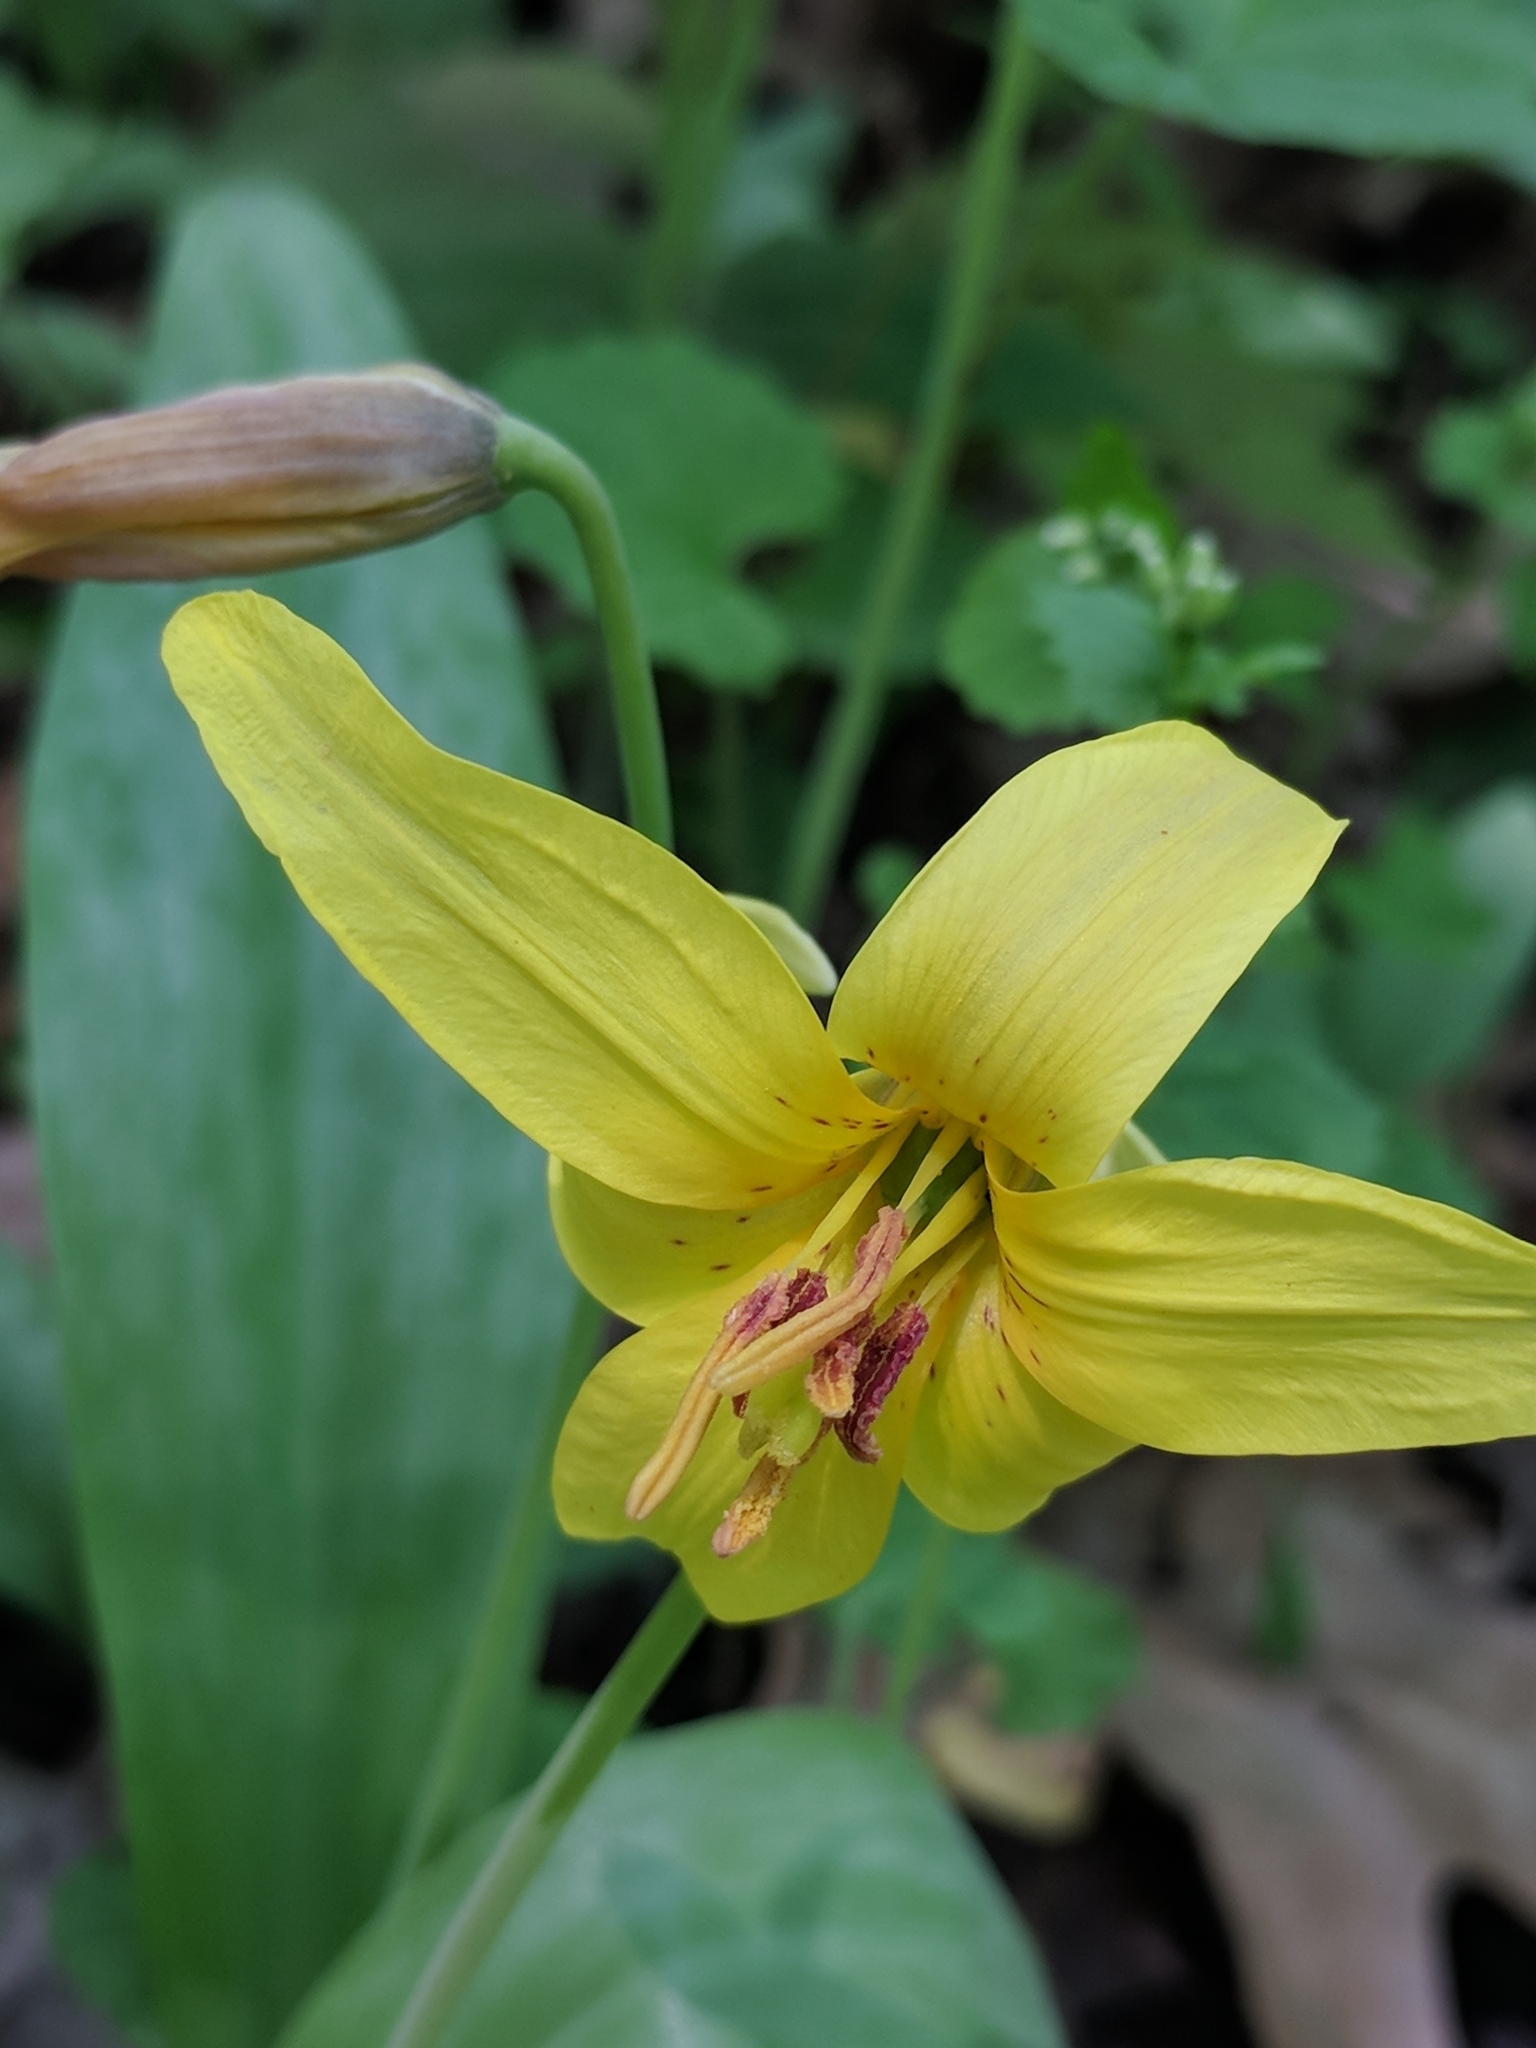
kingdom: Plantae
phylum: Tracheophyta
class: Liliopsida
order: Liliales
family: Liliaceae
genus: Erythronium
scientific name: Erythronium americanum
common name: Yellow adder's-tongue
